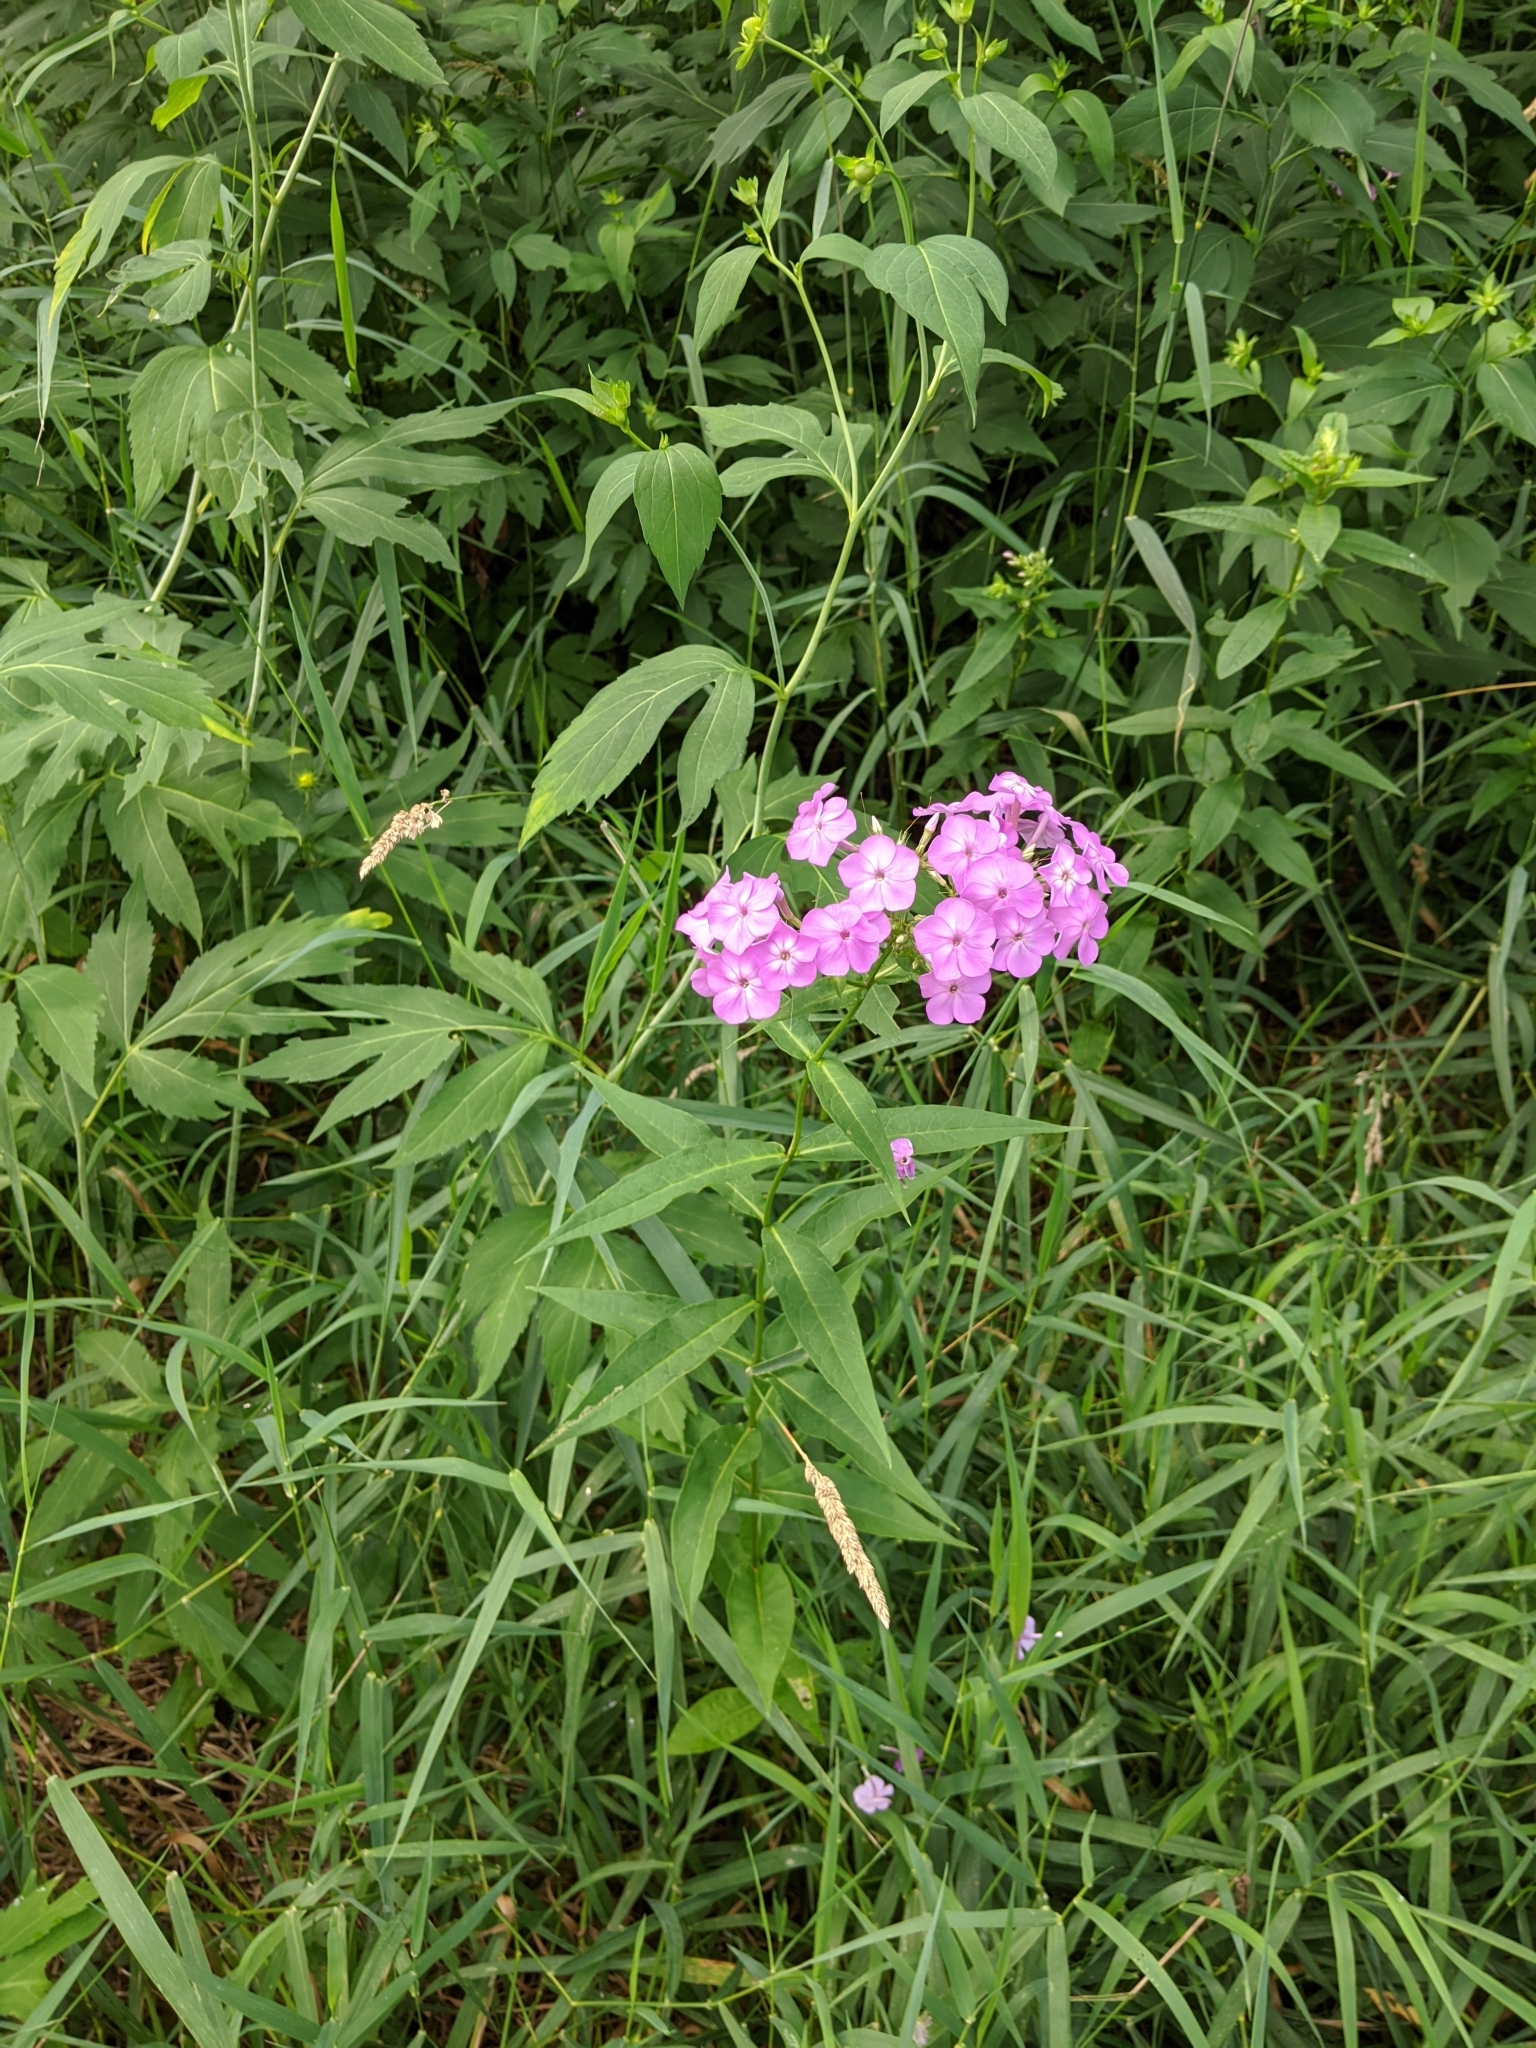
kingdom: Plantae
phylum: Tracheophyta
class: Magnoliopsida
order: Ericales
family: Polemoniaceae
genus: Phlox
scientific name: Phlox paniculata
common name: Fall phlox
